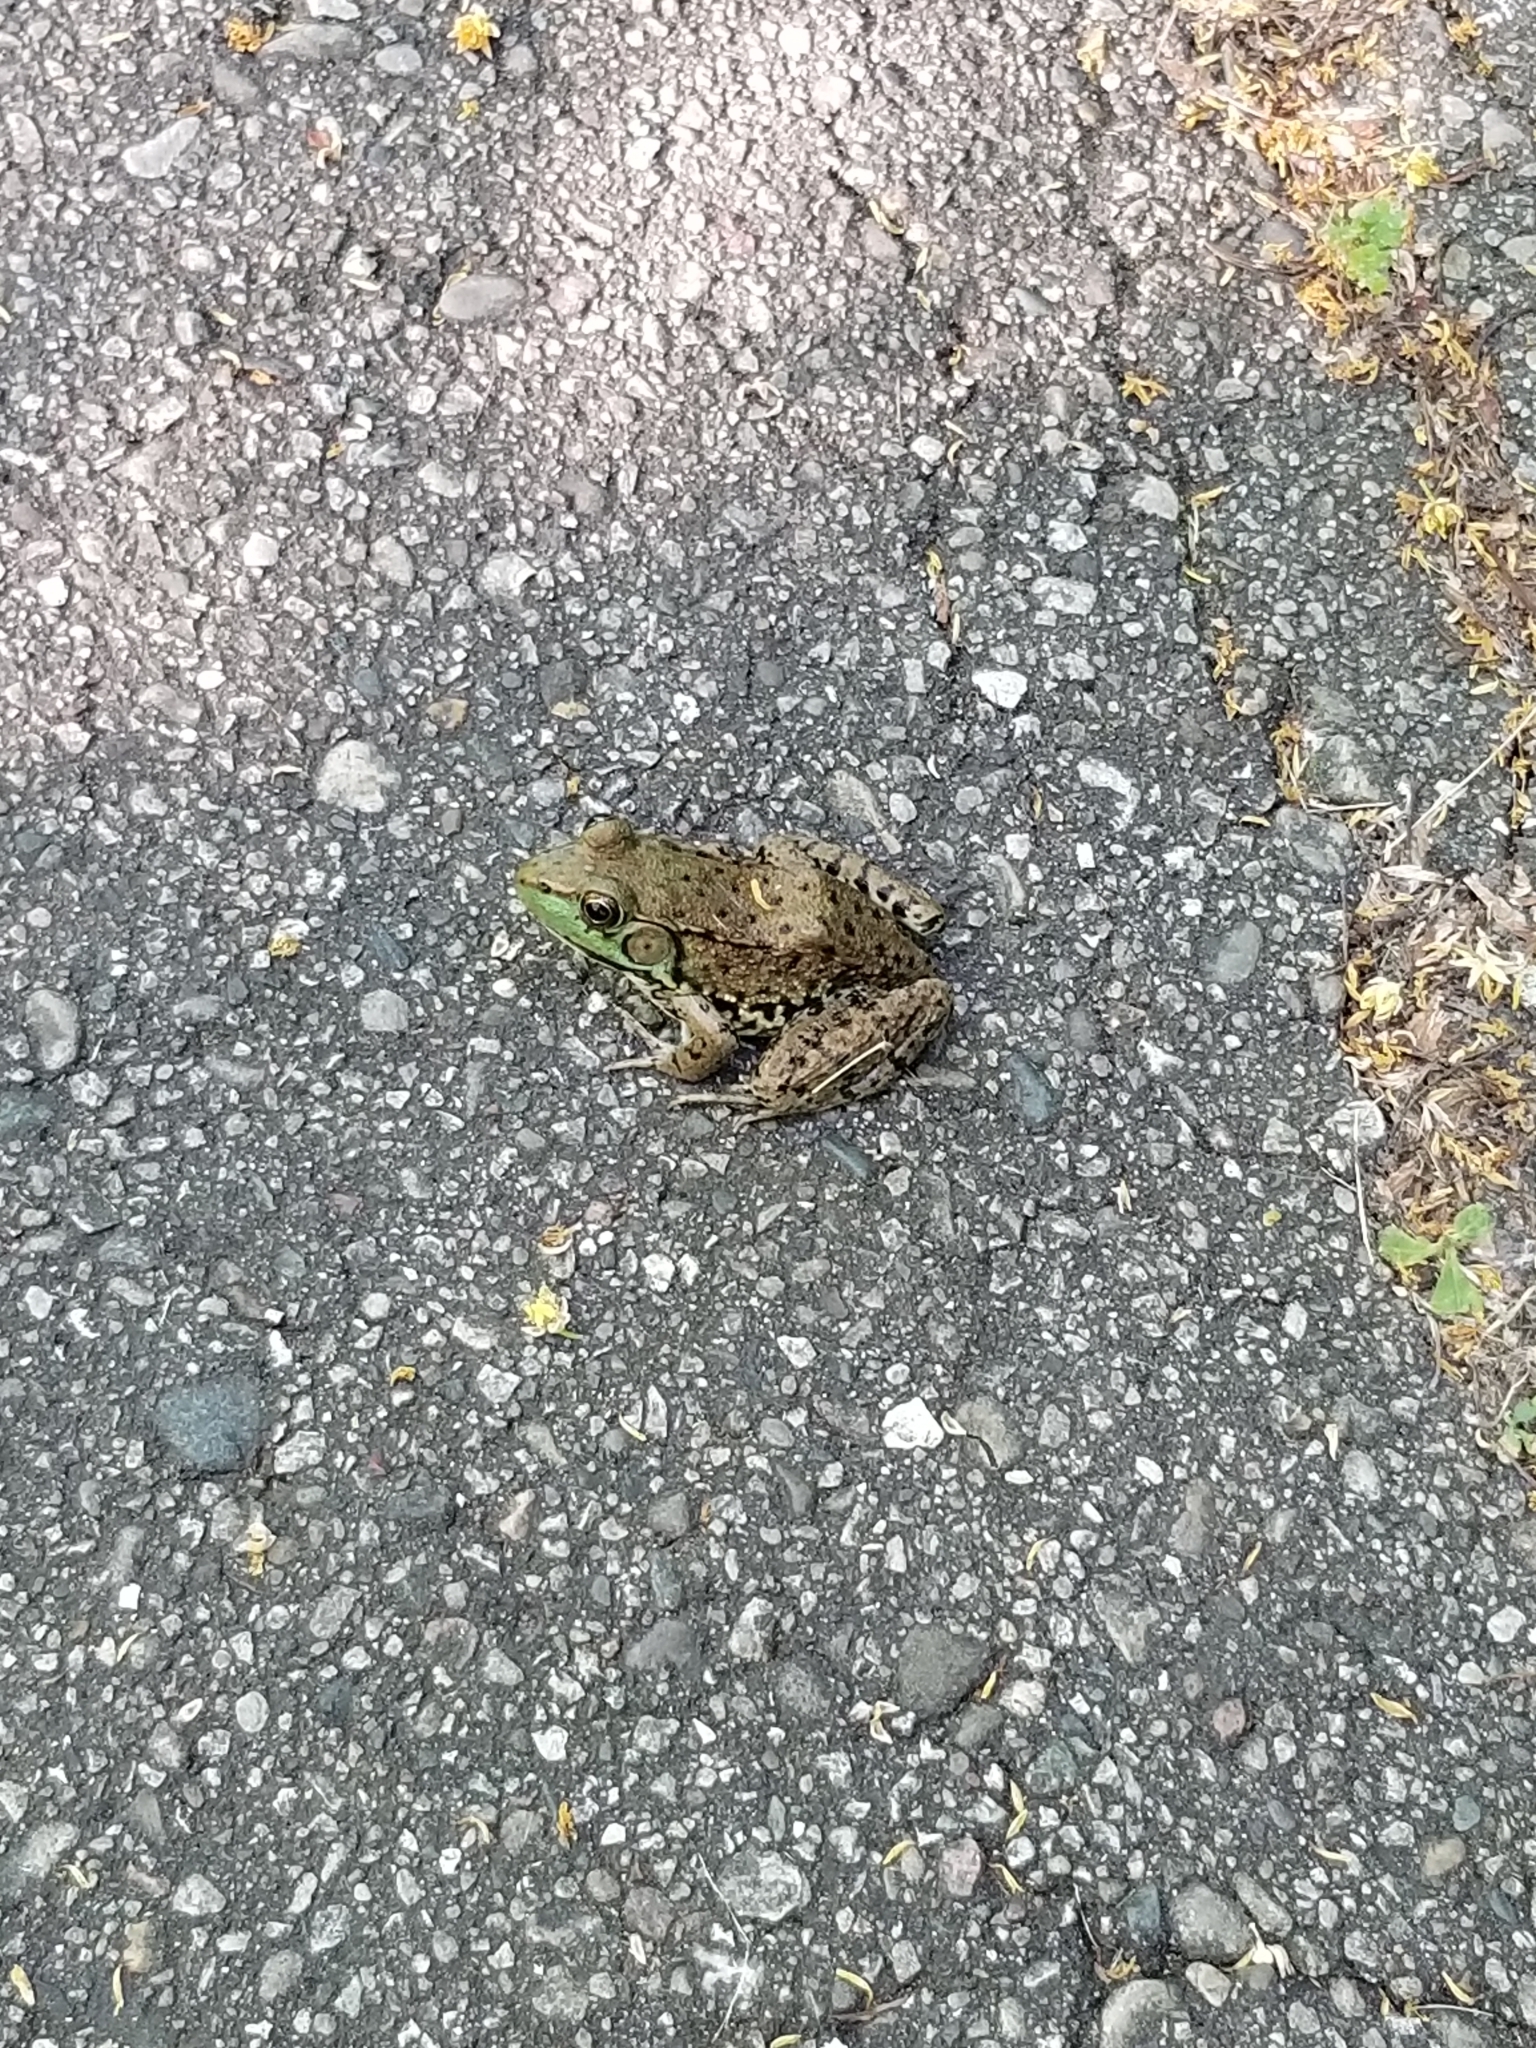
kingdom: Animalia
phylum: Chordata
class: Amphibia
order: Anura
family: Ranidae
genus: Lithobates
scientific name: Lithobates clamitans
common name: Green frog
